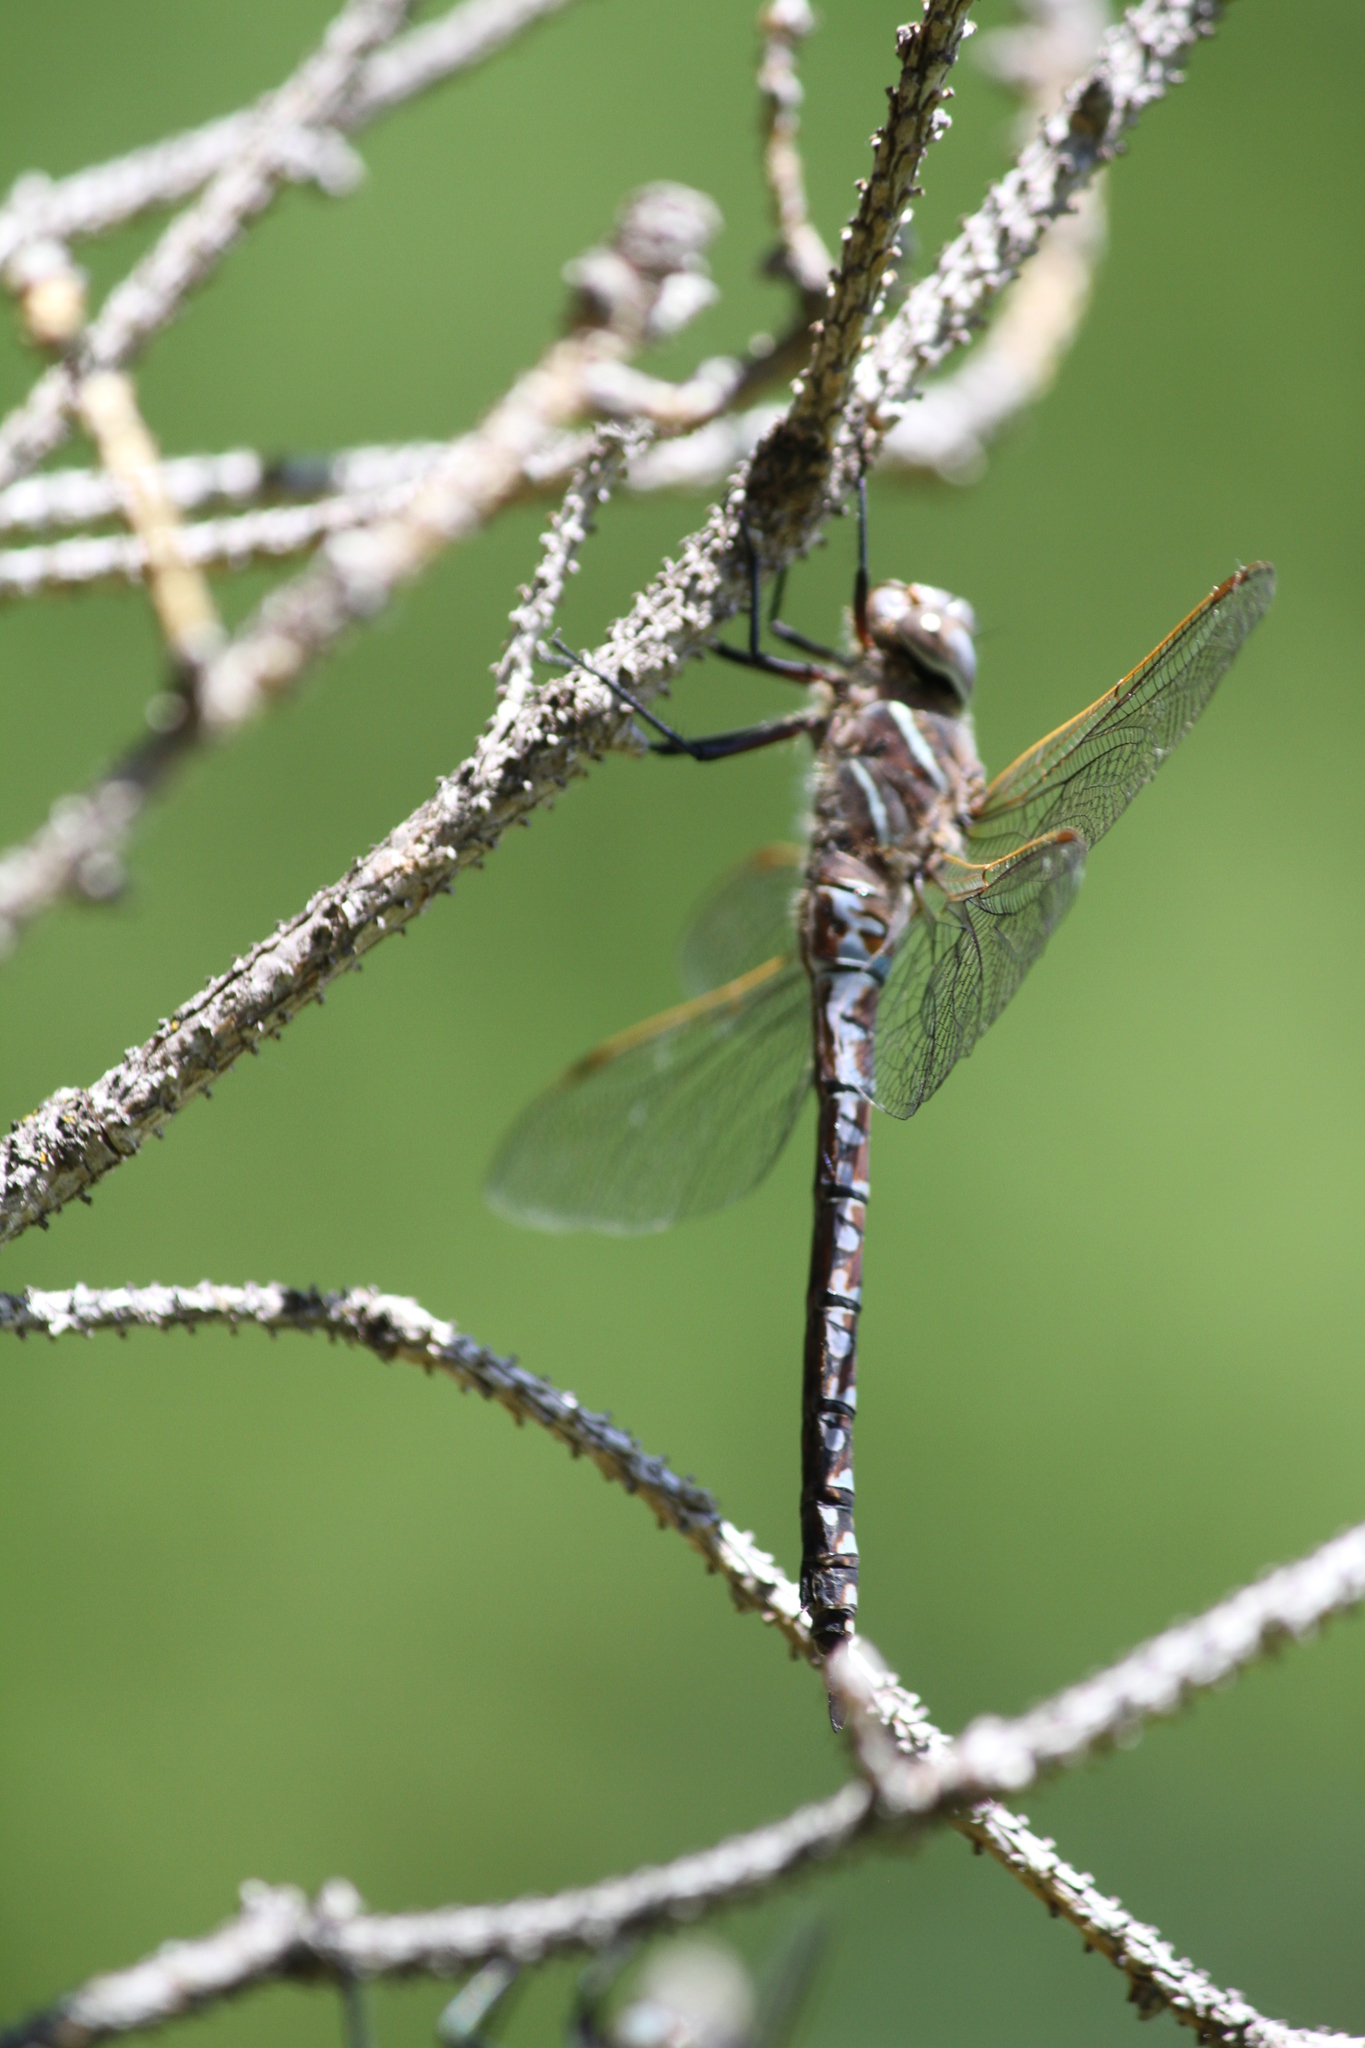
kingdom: Animalia
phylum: Arthropoda
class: Insecta
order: Odonata
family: Aeshnidae
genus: Aeshna
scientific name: Aeshna interrupta
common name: Variable darner
